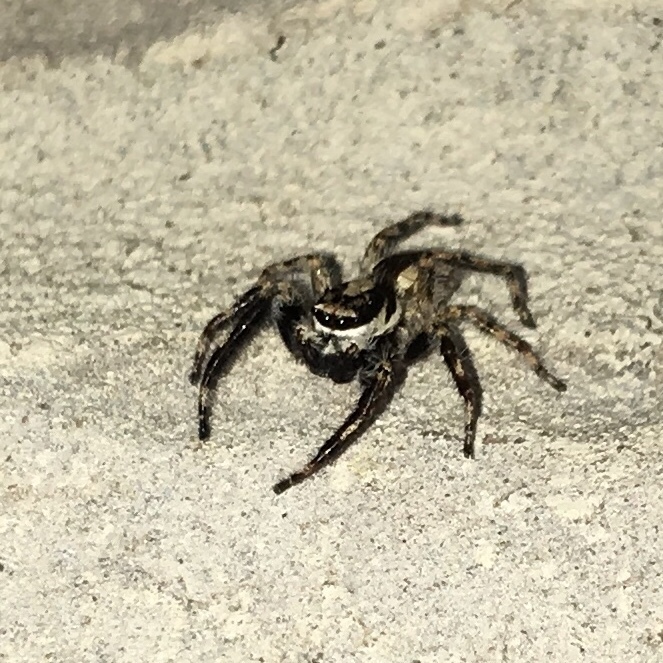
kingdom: Animalia
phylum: Arthropoda
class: Arachnida
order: Araneae
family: Salticidae
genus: Menemerus
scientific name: Menemerus bivittatus
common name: Gray wall jumper
